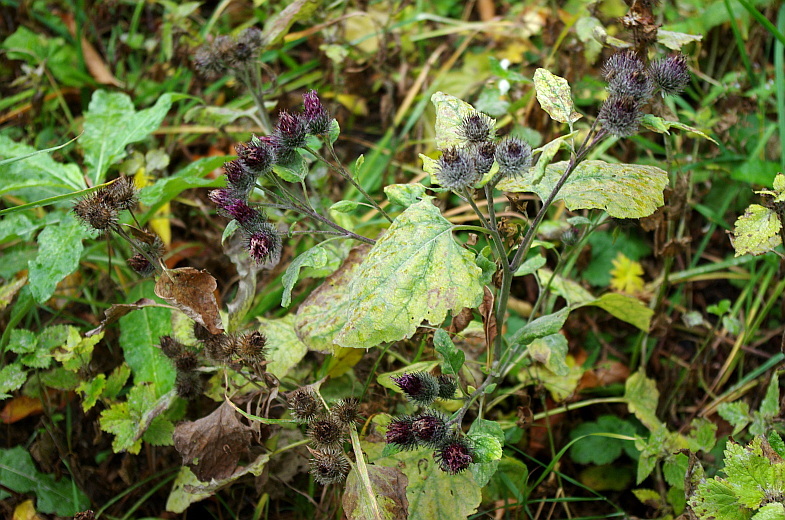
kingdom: Plantae
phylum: Tracheophyta
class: Magnoliopsida
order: Asterales
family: Asteraceae
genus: Arctium
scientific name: Arctium tomentosum
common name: Woolly burdock
